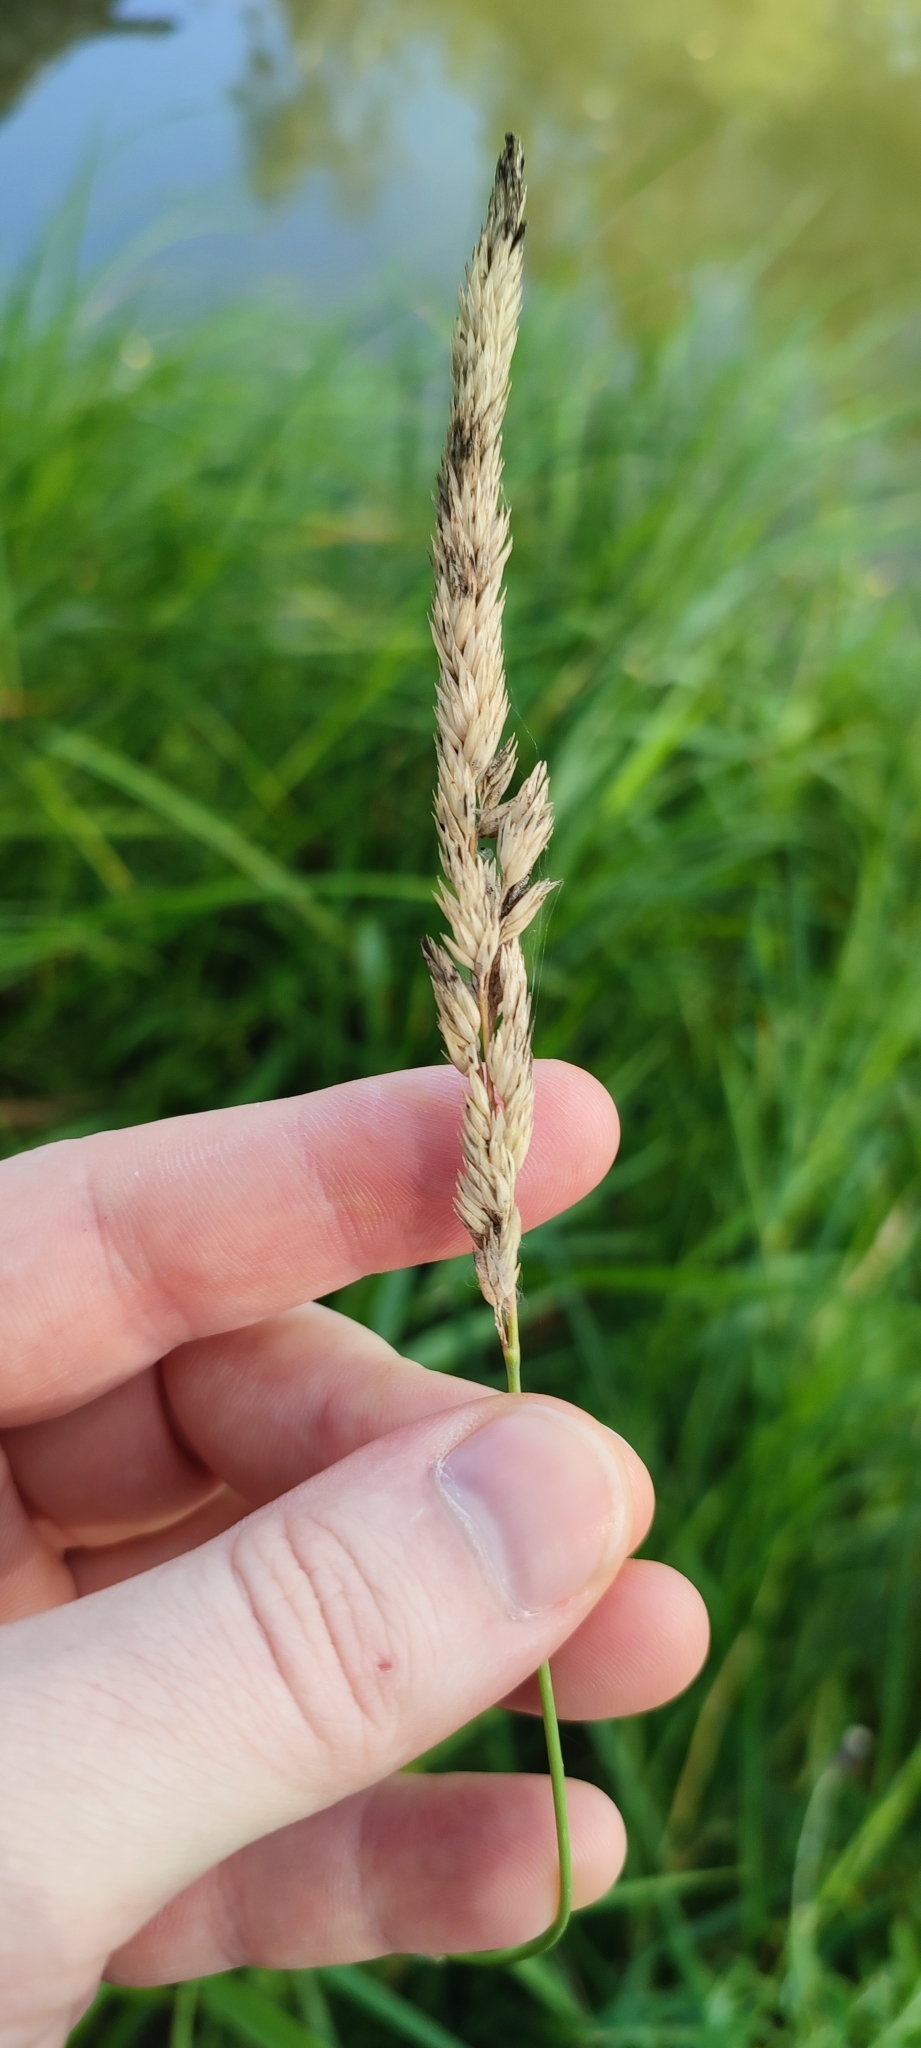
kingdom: Plantae
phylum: Tracheophyta
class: Liliopsida
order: Poales
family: Poaceae
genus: Phalaris
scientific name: Phalaris arundinacea
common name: Reed canary-grass
